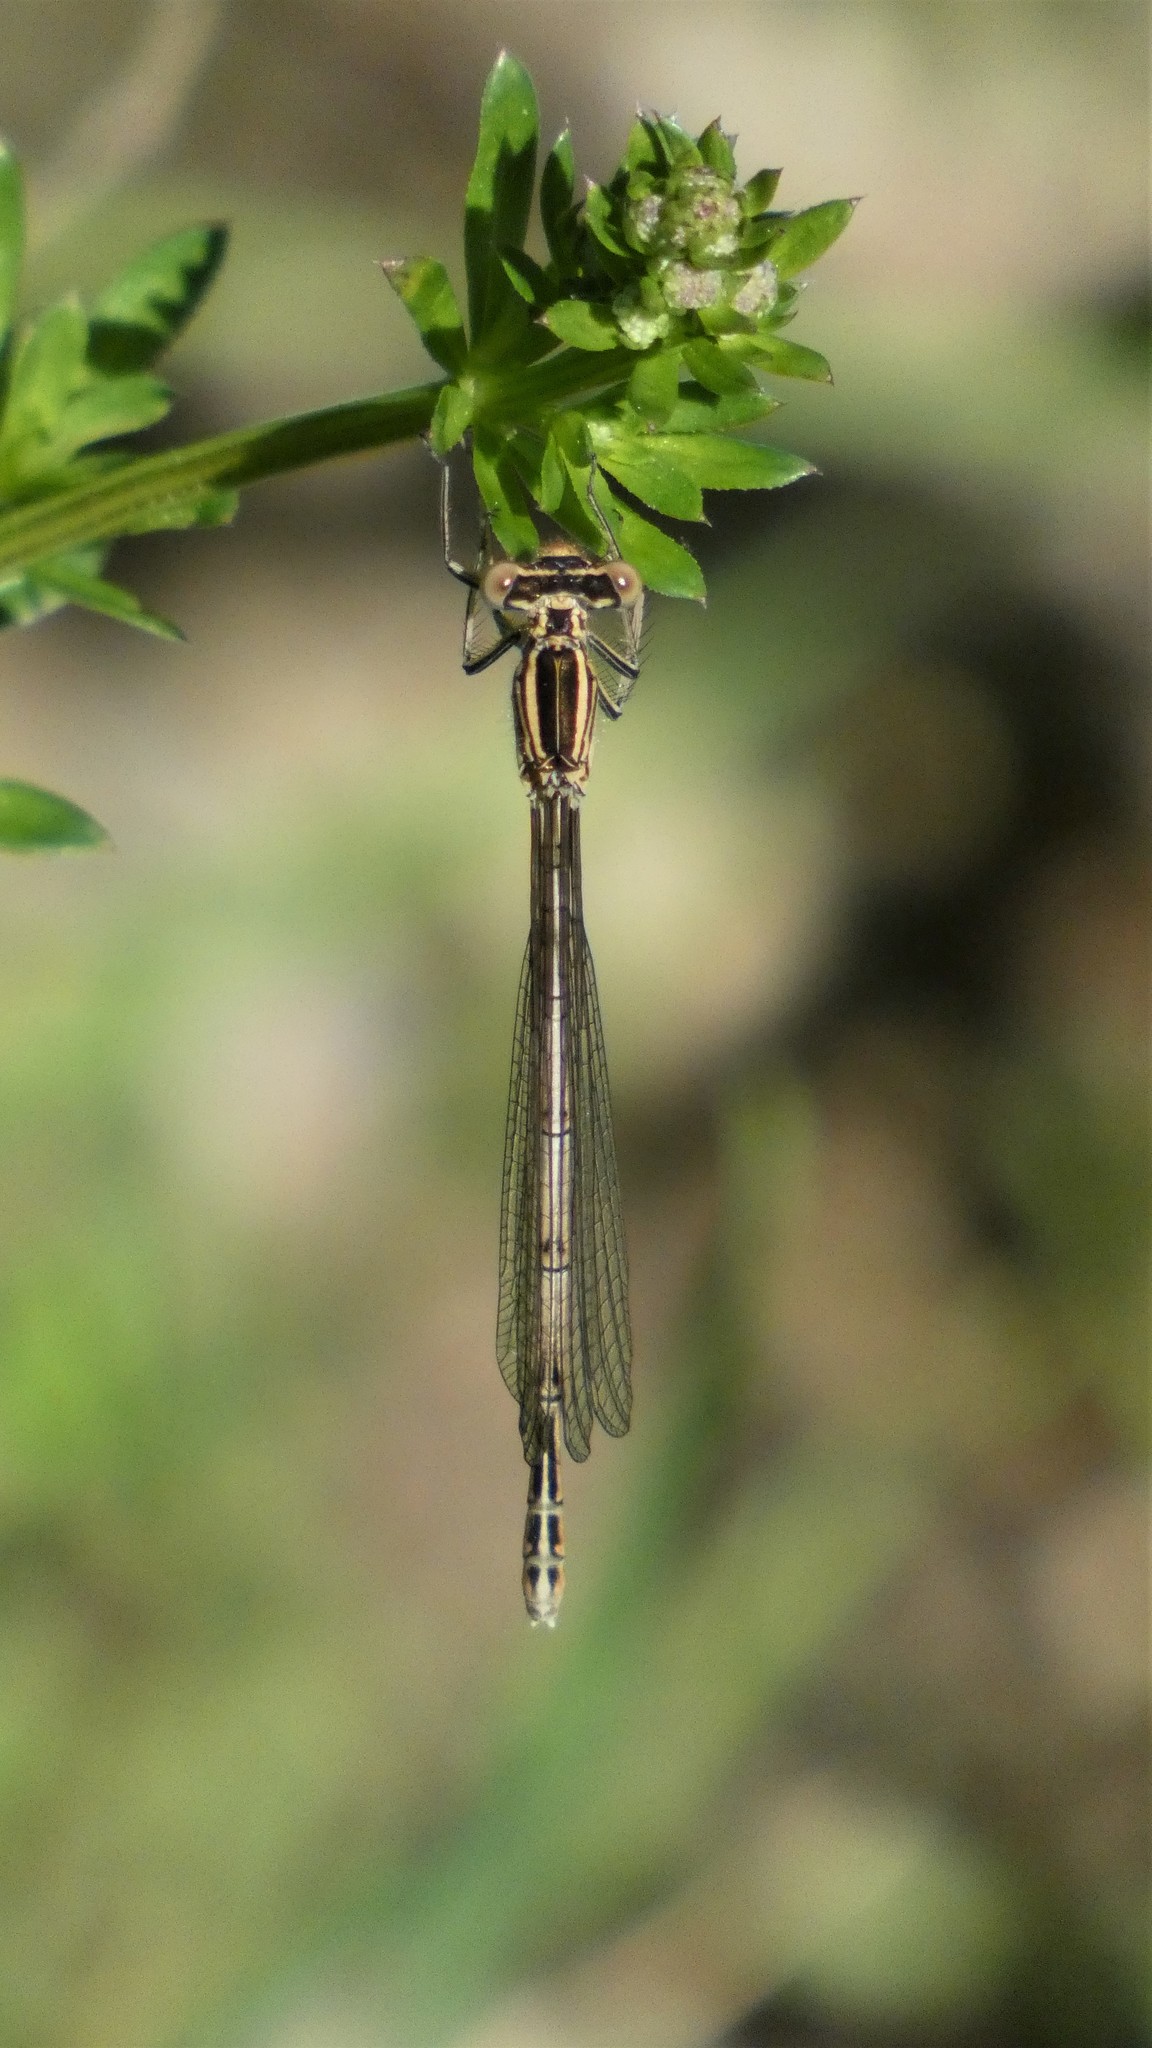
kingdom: Animalia
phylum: Arthropoda
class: Insecta
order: Odonata
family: Platycnemididae
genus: Platycnemis
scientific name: Platycnemis pennipes
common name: White-legged damselfly
